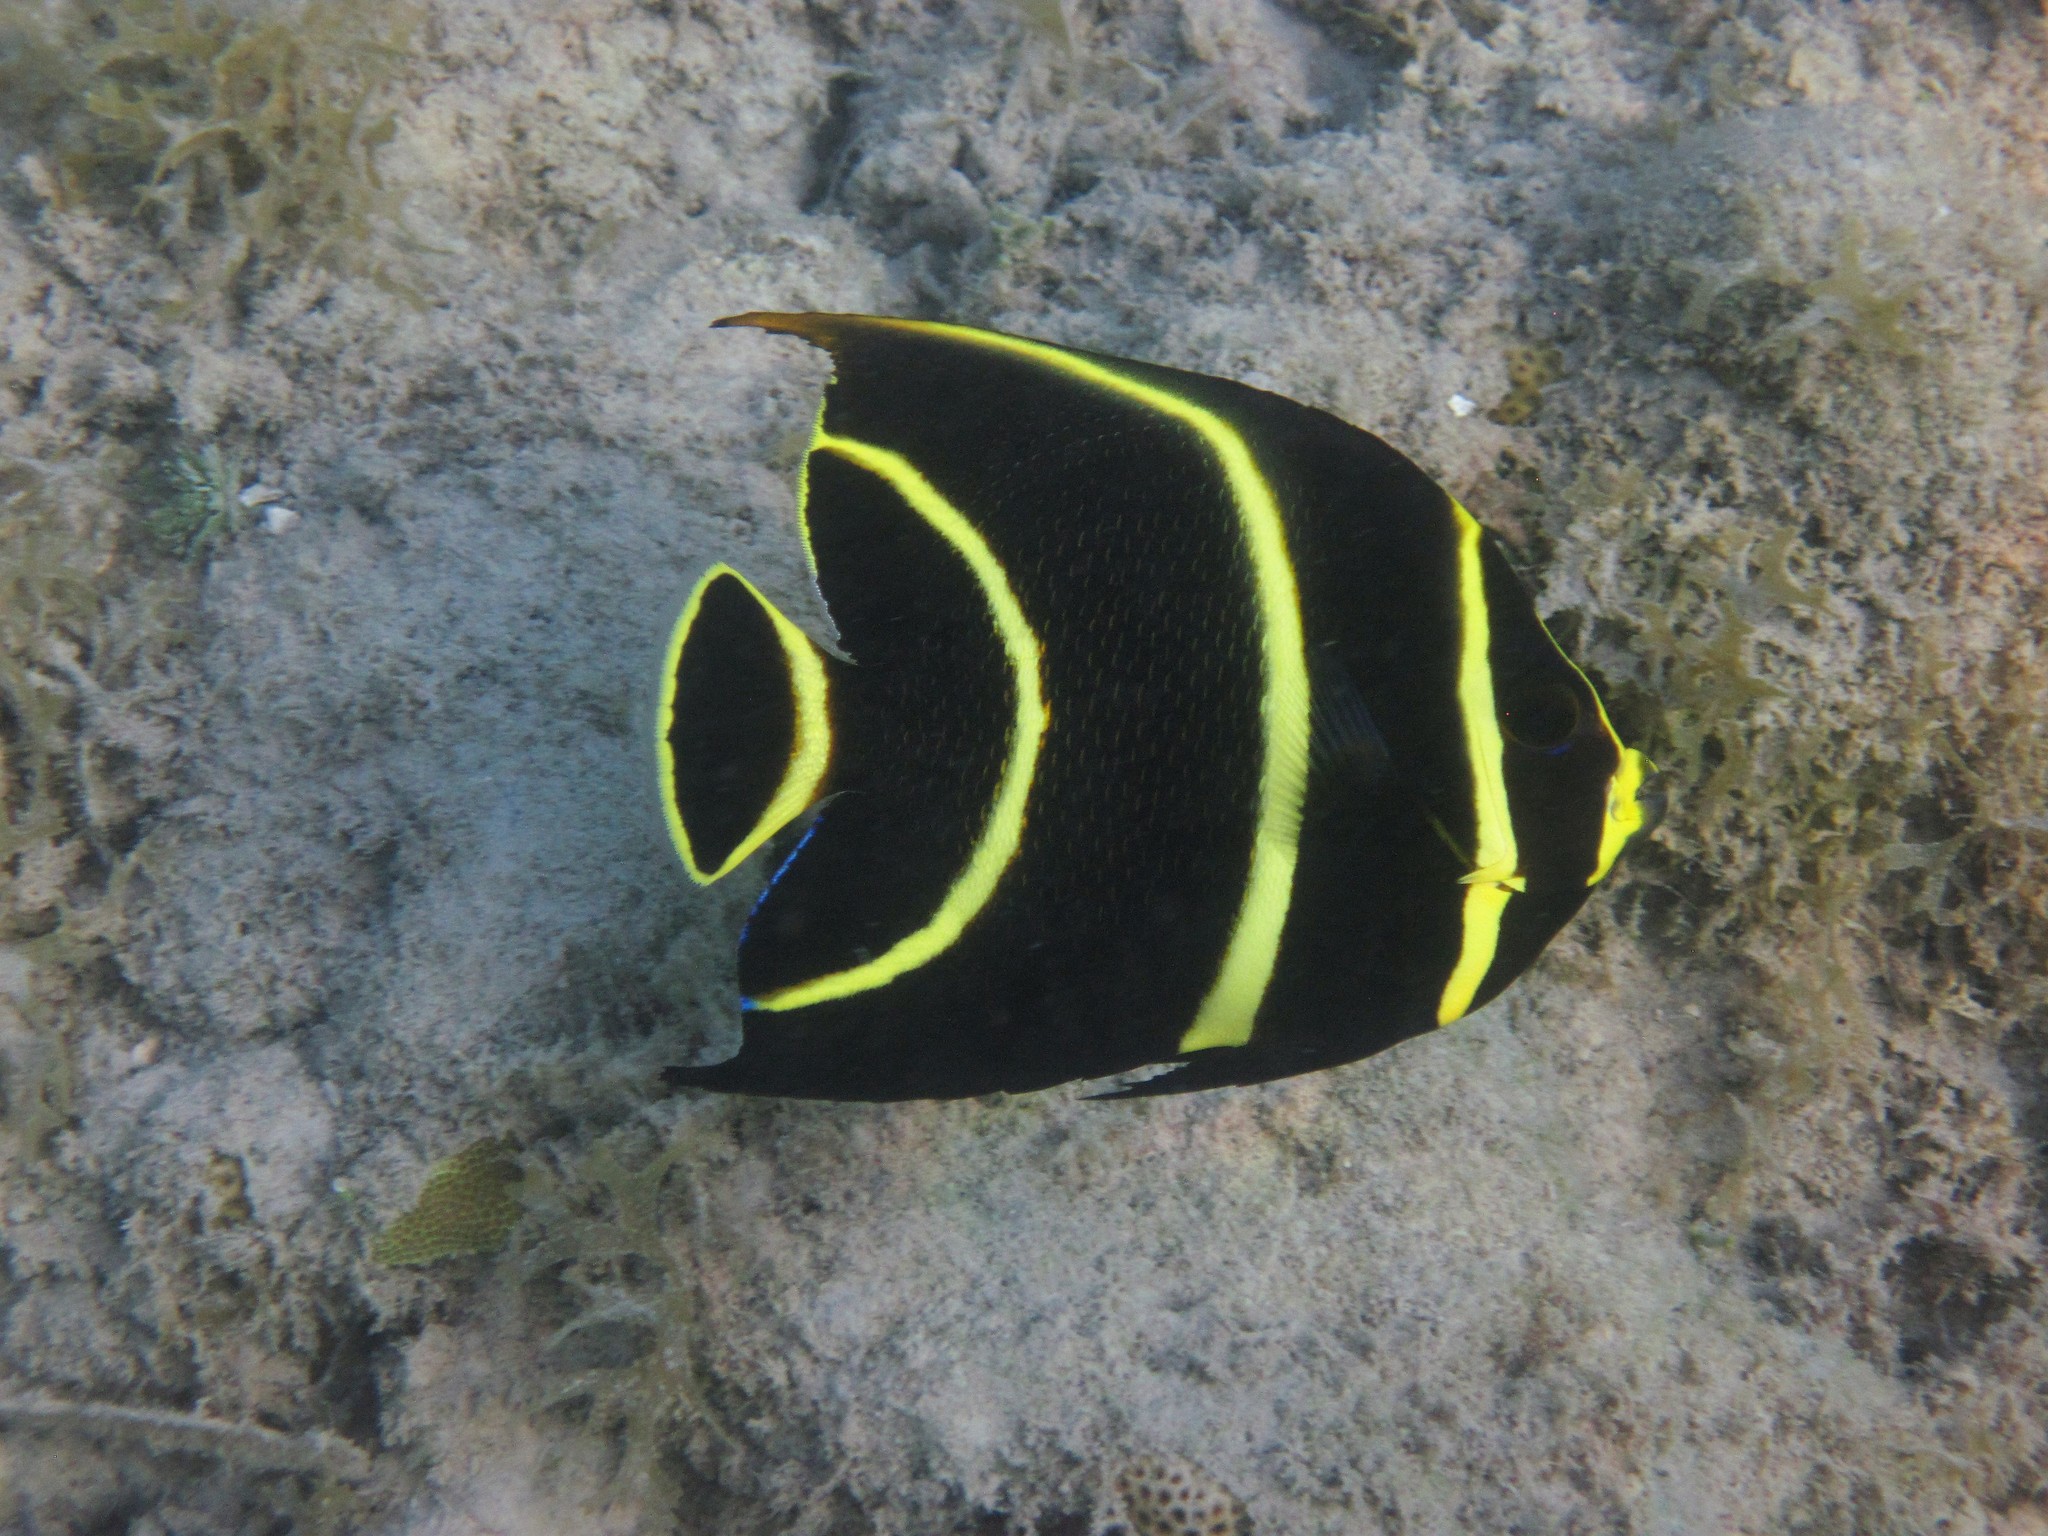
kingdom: Animalia
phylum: Chordata
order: Perciformes
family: Pomacanthidae
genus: Pomacanthus
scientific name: Pomacanthus paru
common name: French angelfish
